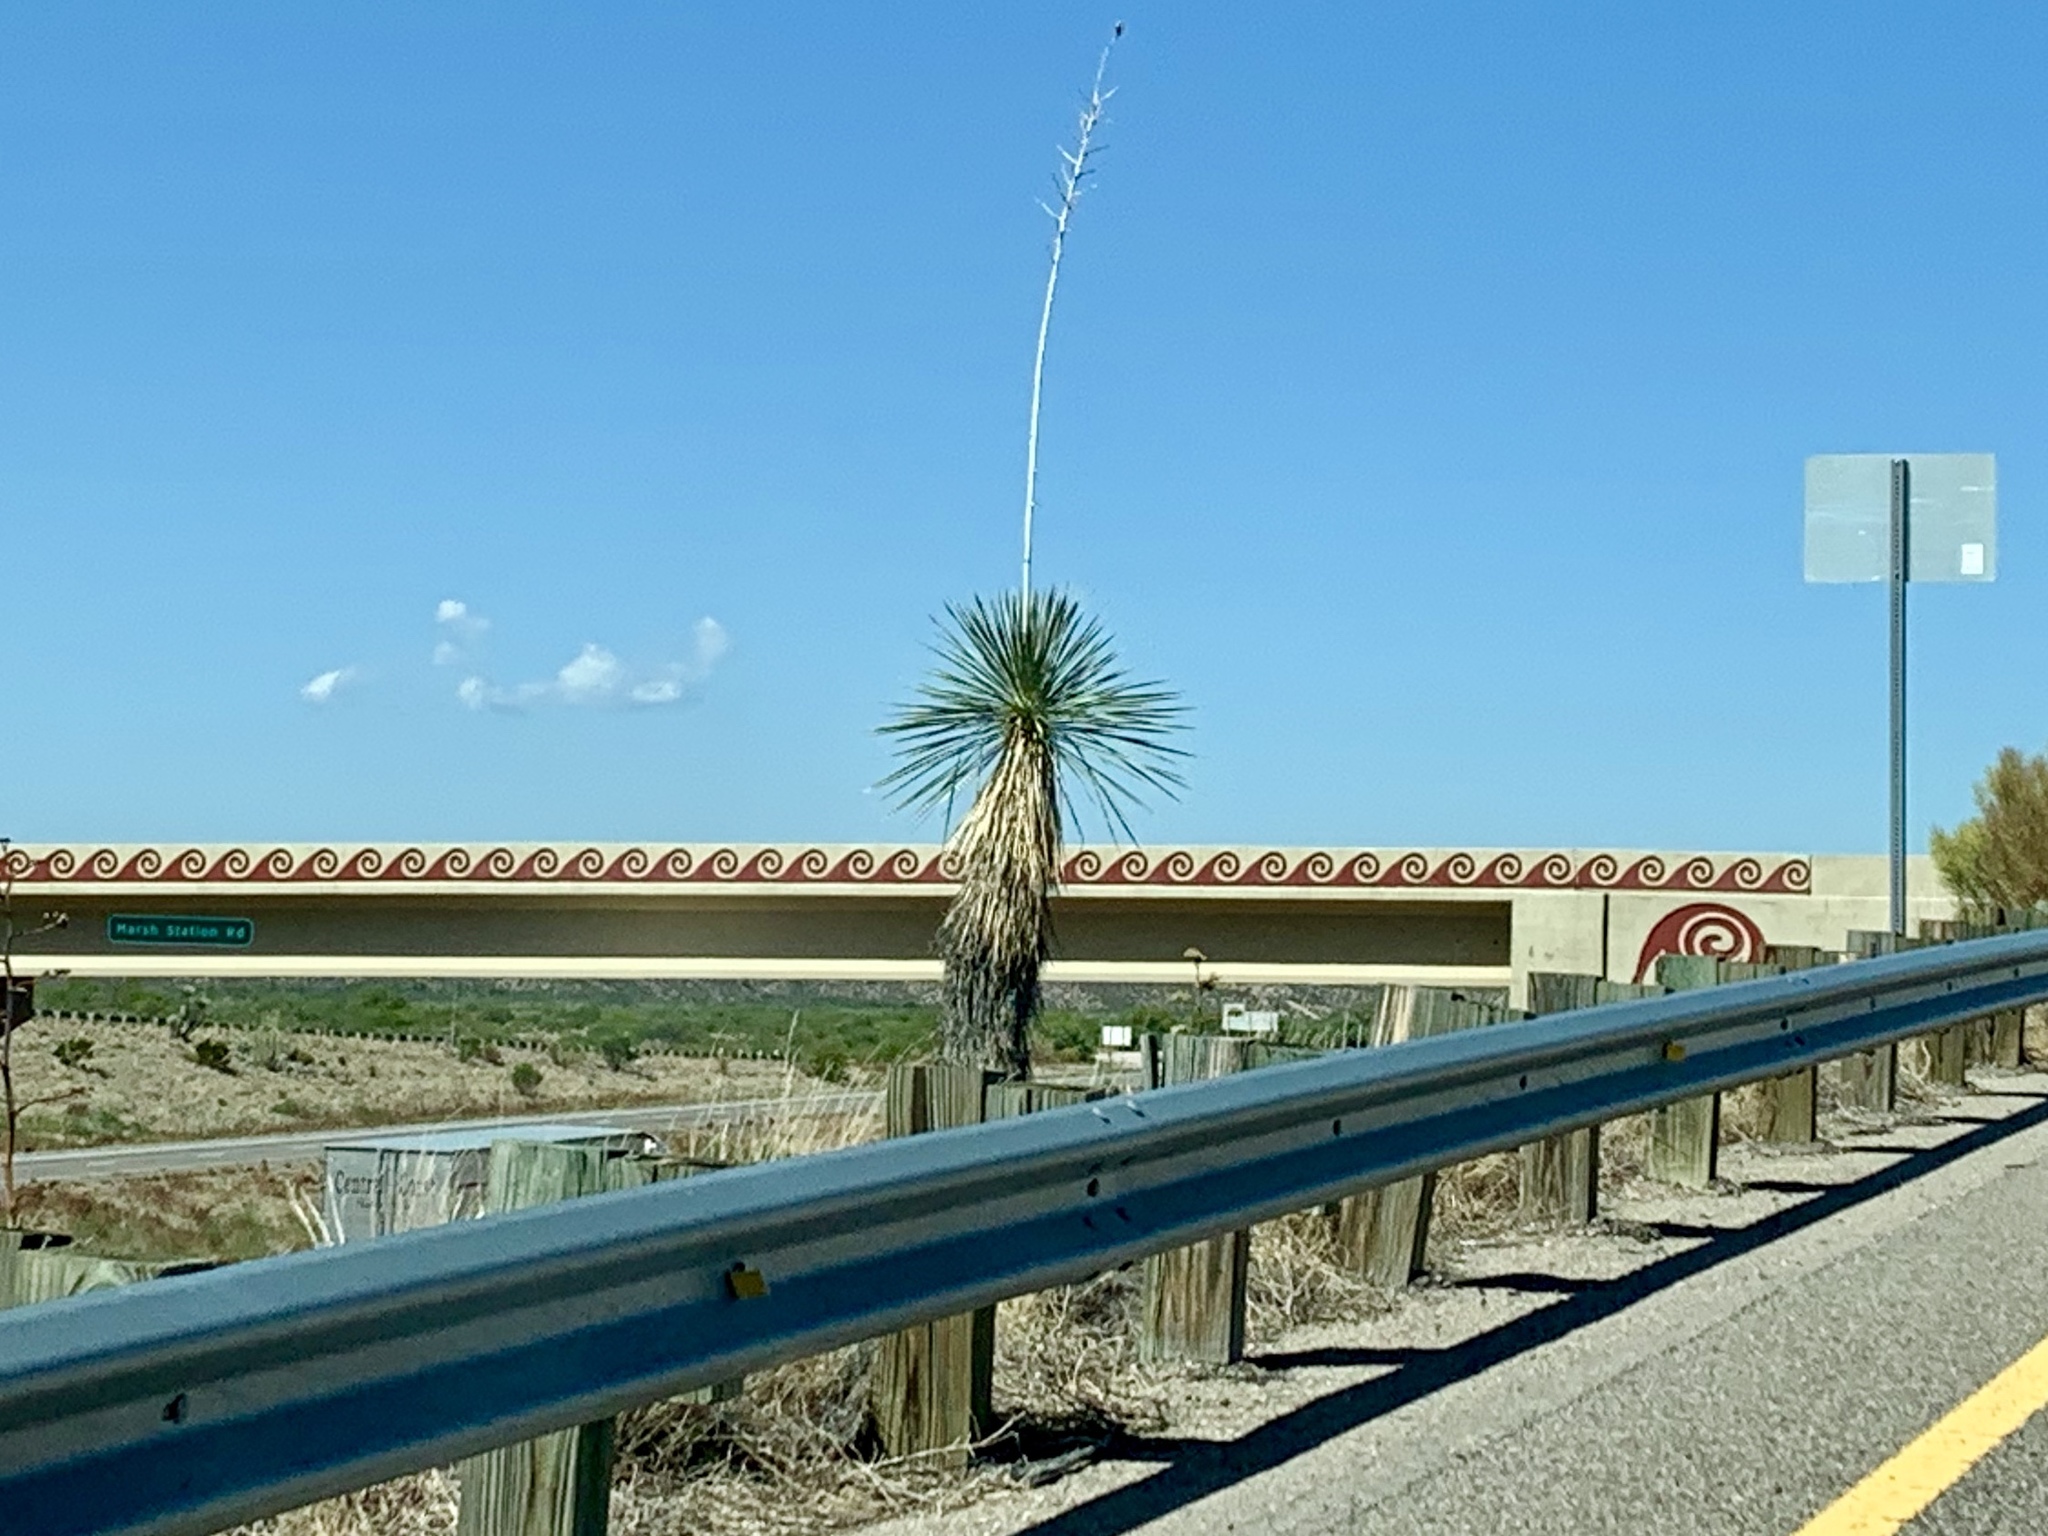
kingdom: Plantae
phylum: Tracheophyta
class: Liliopsida
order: Asparagales
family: Asparagaceae
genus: Yucca
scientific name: Yucca elata
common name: Palmella
